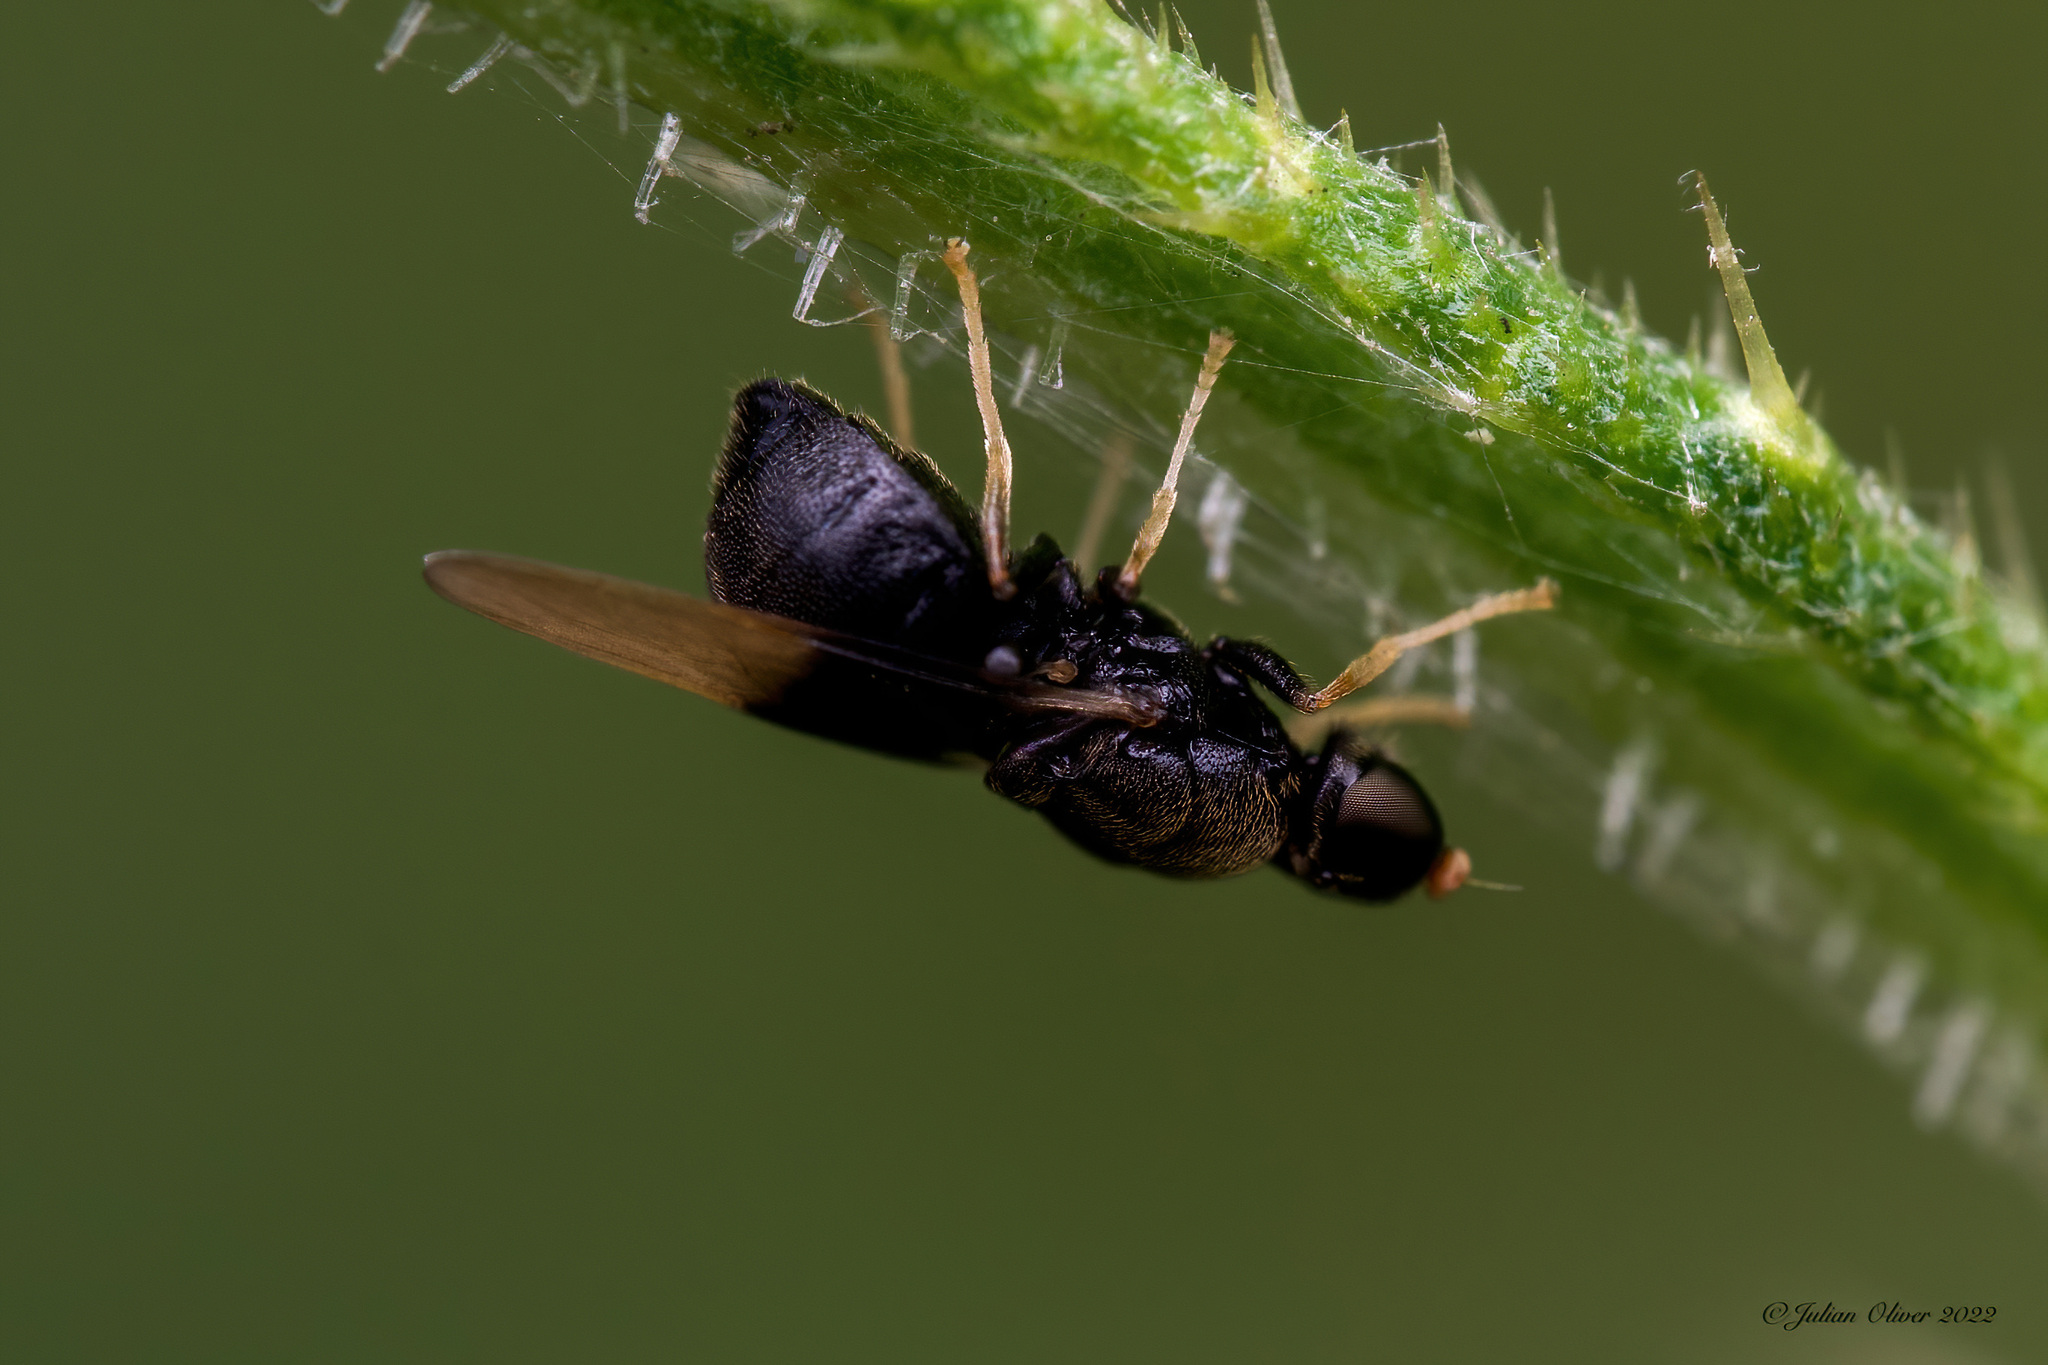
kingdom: Animalia
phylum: Arthropoda
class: Insecta
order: Diptera
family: Stratiomyidae
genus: Pachygaster
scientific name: Pachygaster atra
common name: Dark-winged black
